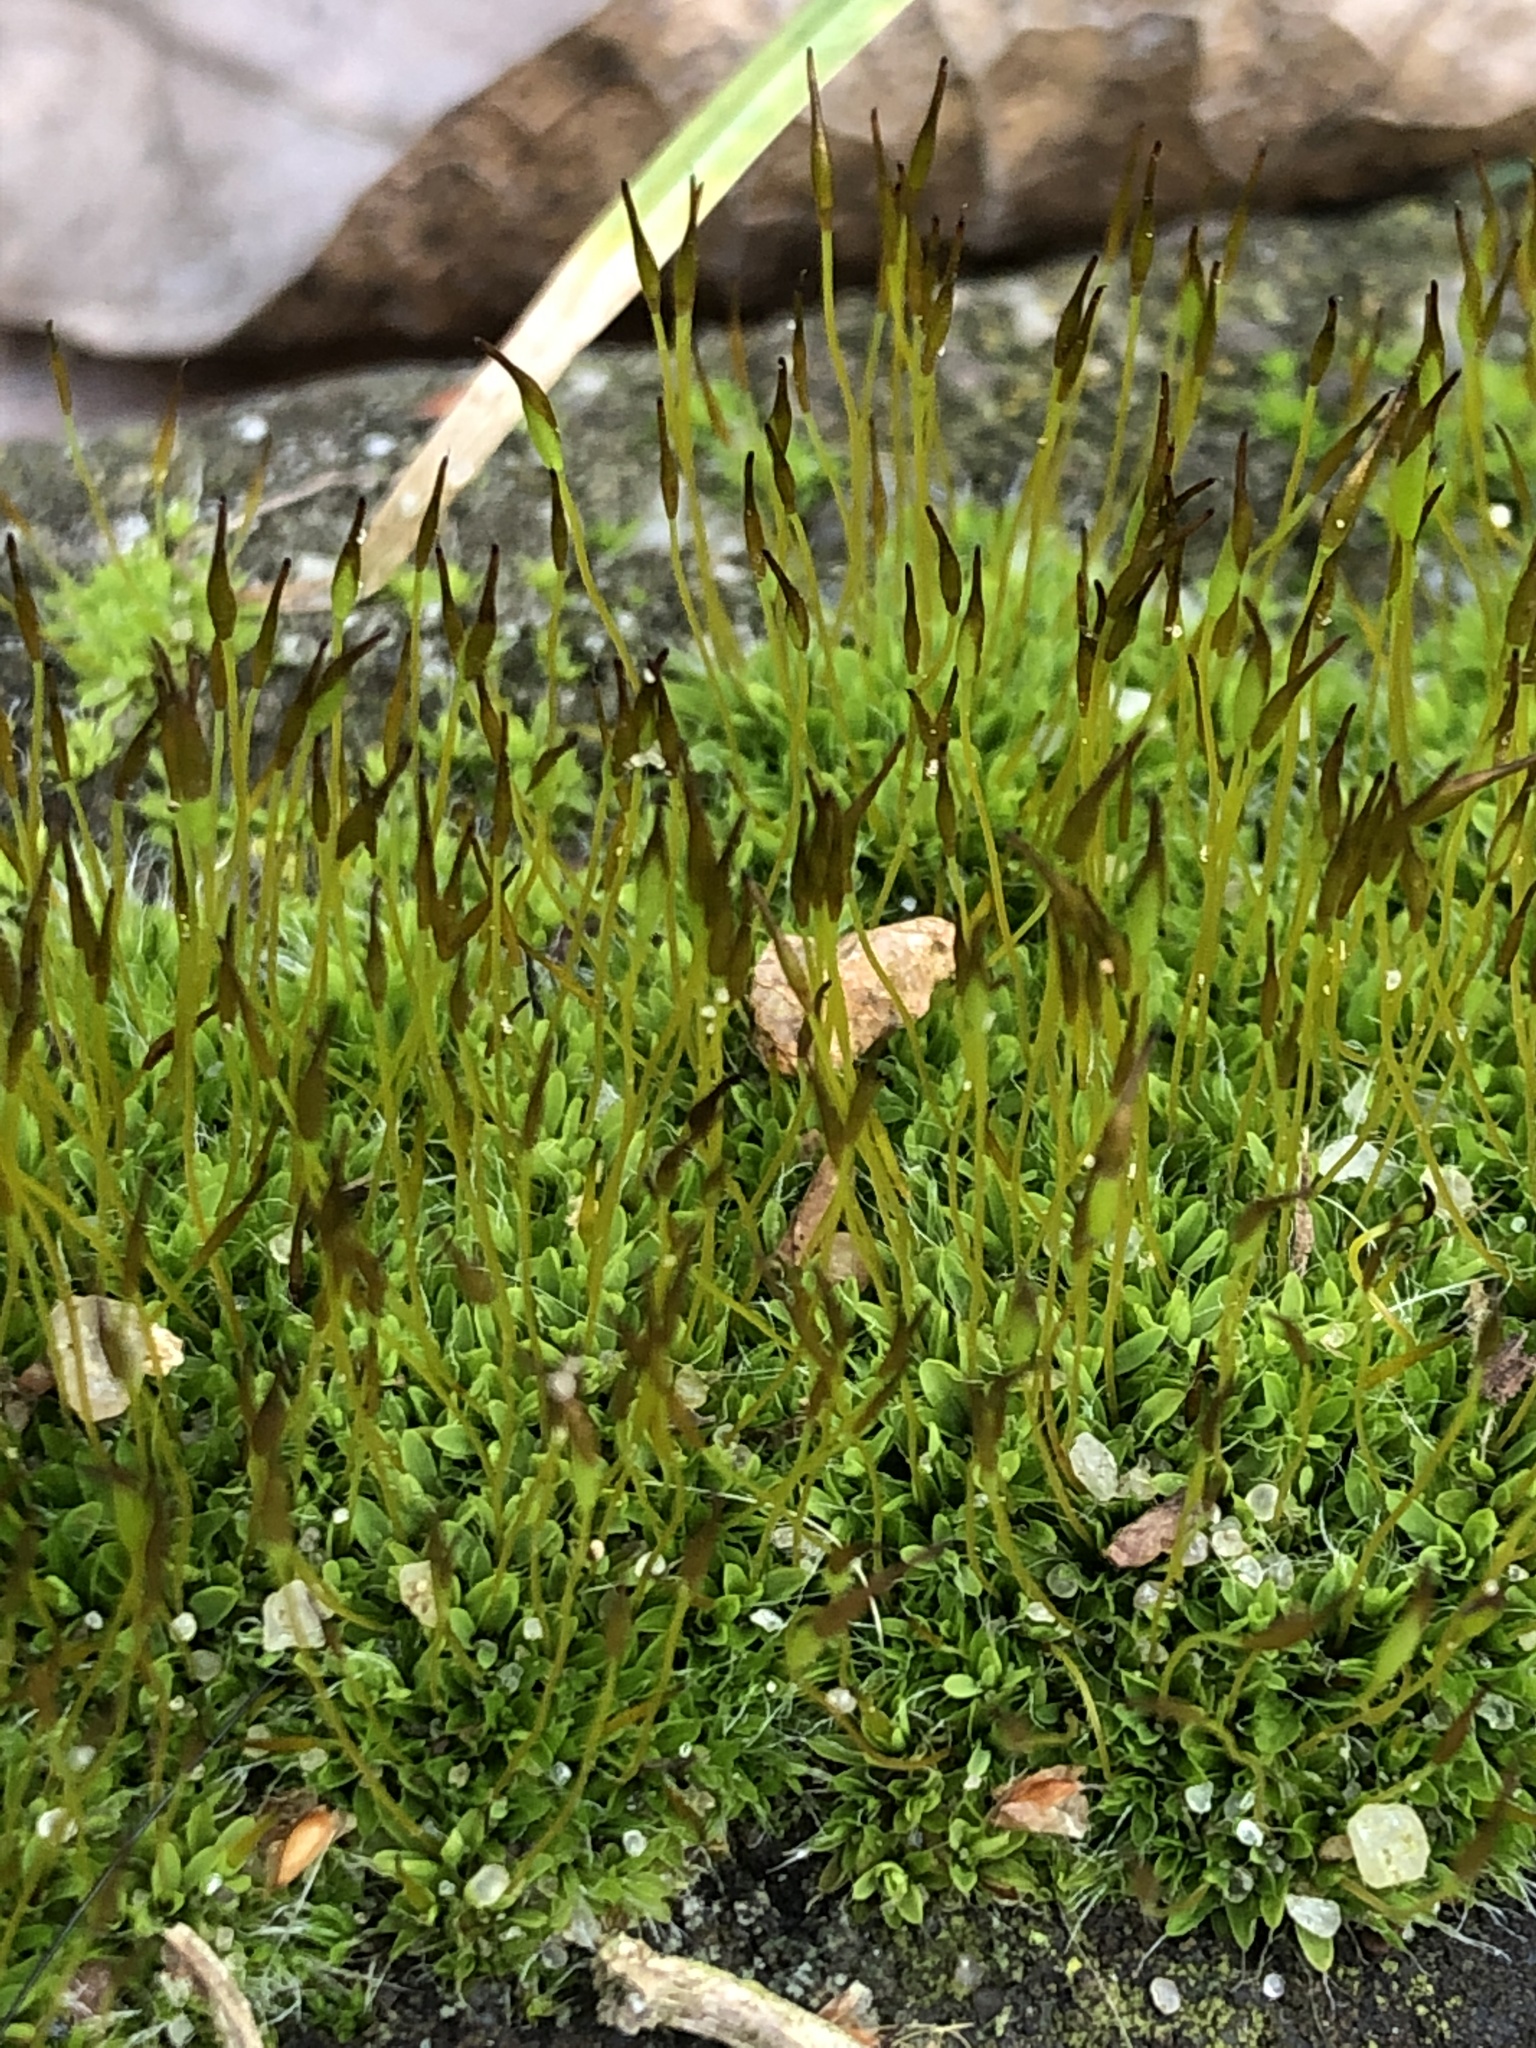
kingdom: Plantae
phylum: Bryophyta
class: Bryopsida
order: Pottiales
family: Pottiaceae
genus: Tortula
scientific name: Tortula muralis
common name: Wall screw-moss
